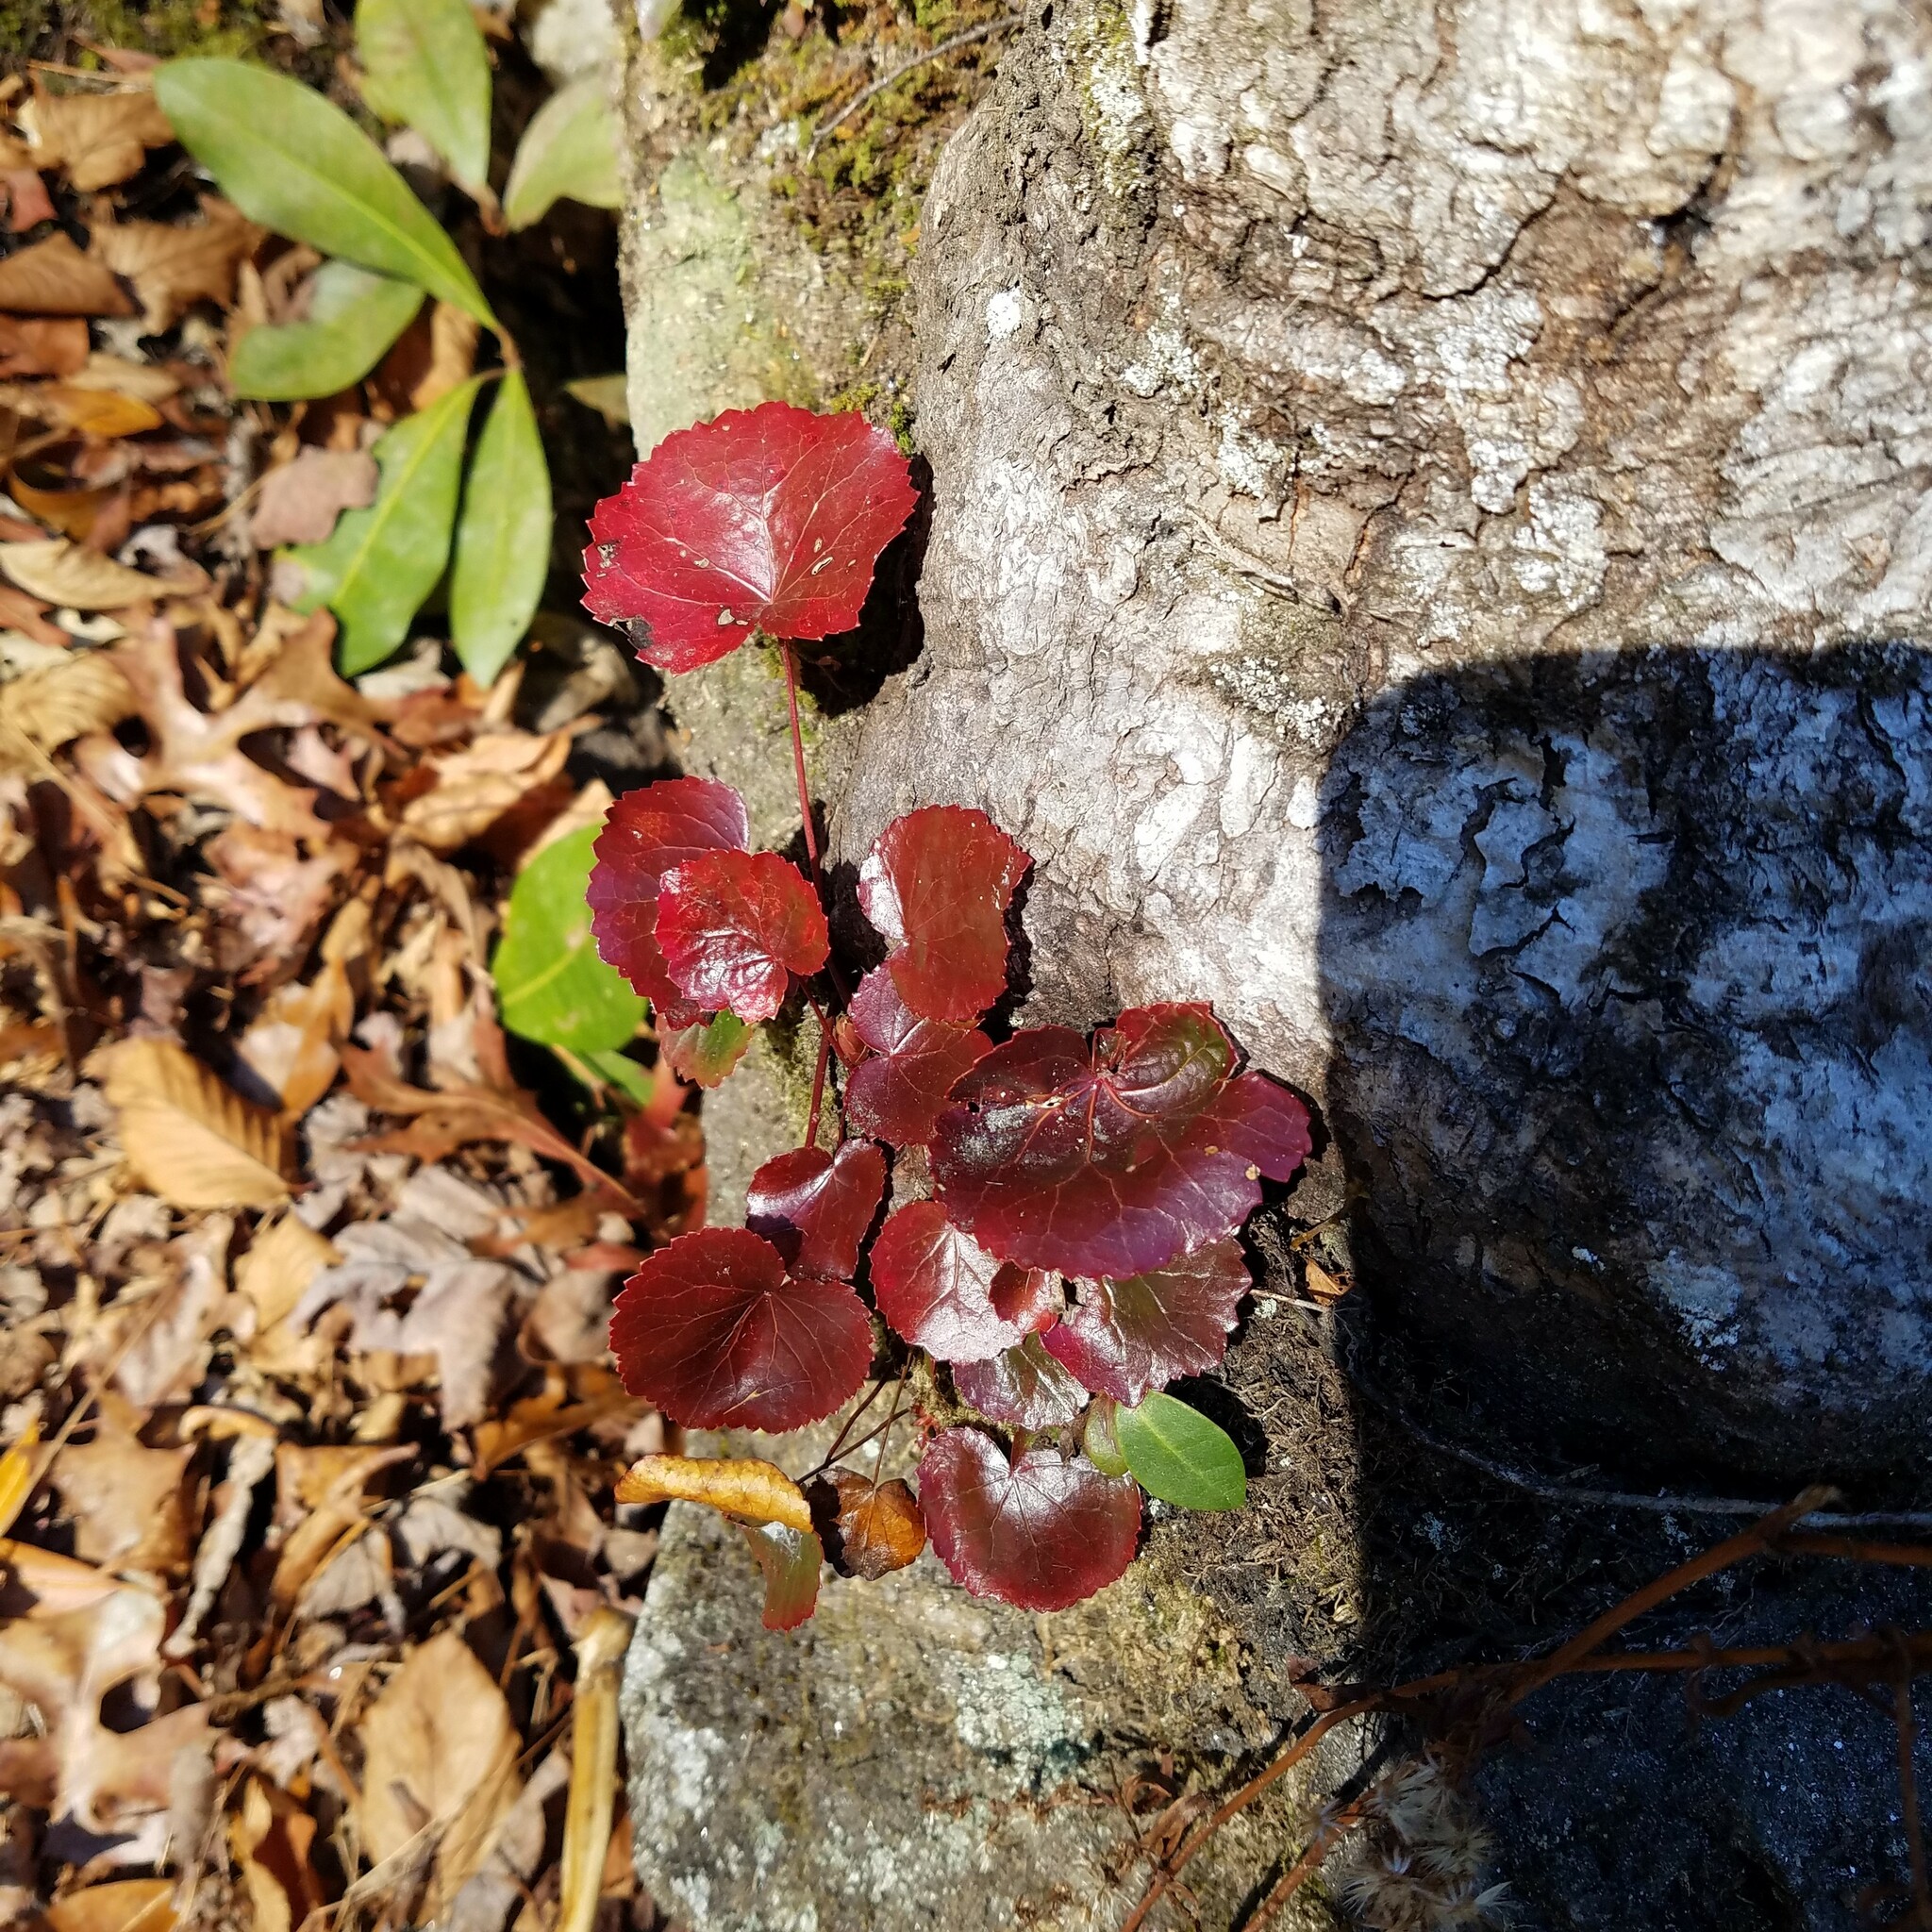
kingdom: Plantae
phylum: Tracheophyta
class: Magnoliopsida
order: Ericales
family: Diapensiaceae
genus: Galax
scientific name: Galax urceolata
